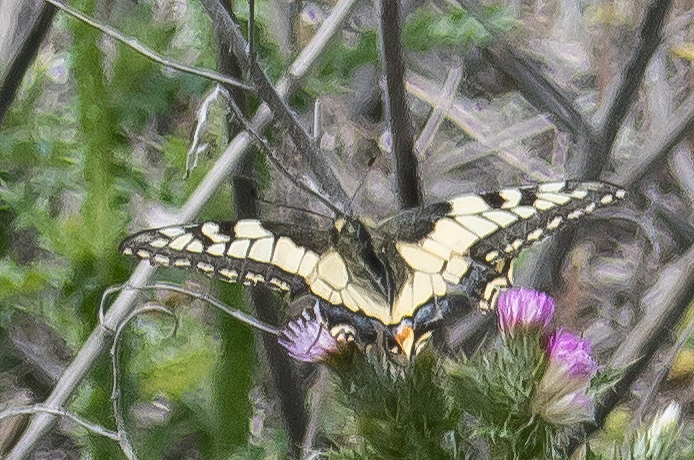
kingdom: Animalia
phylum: Arthropoda
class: Insecta
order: Lepidoptera
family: Papilionidae
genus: Papilio
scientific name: Papilio machaon
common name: Swallowtail
